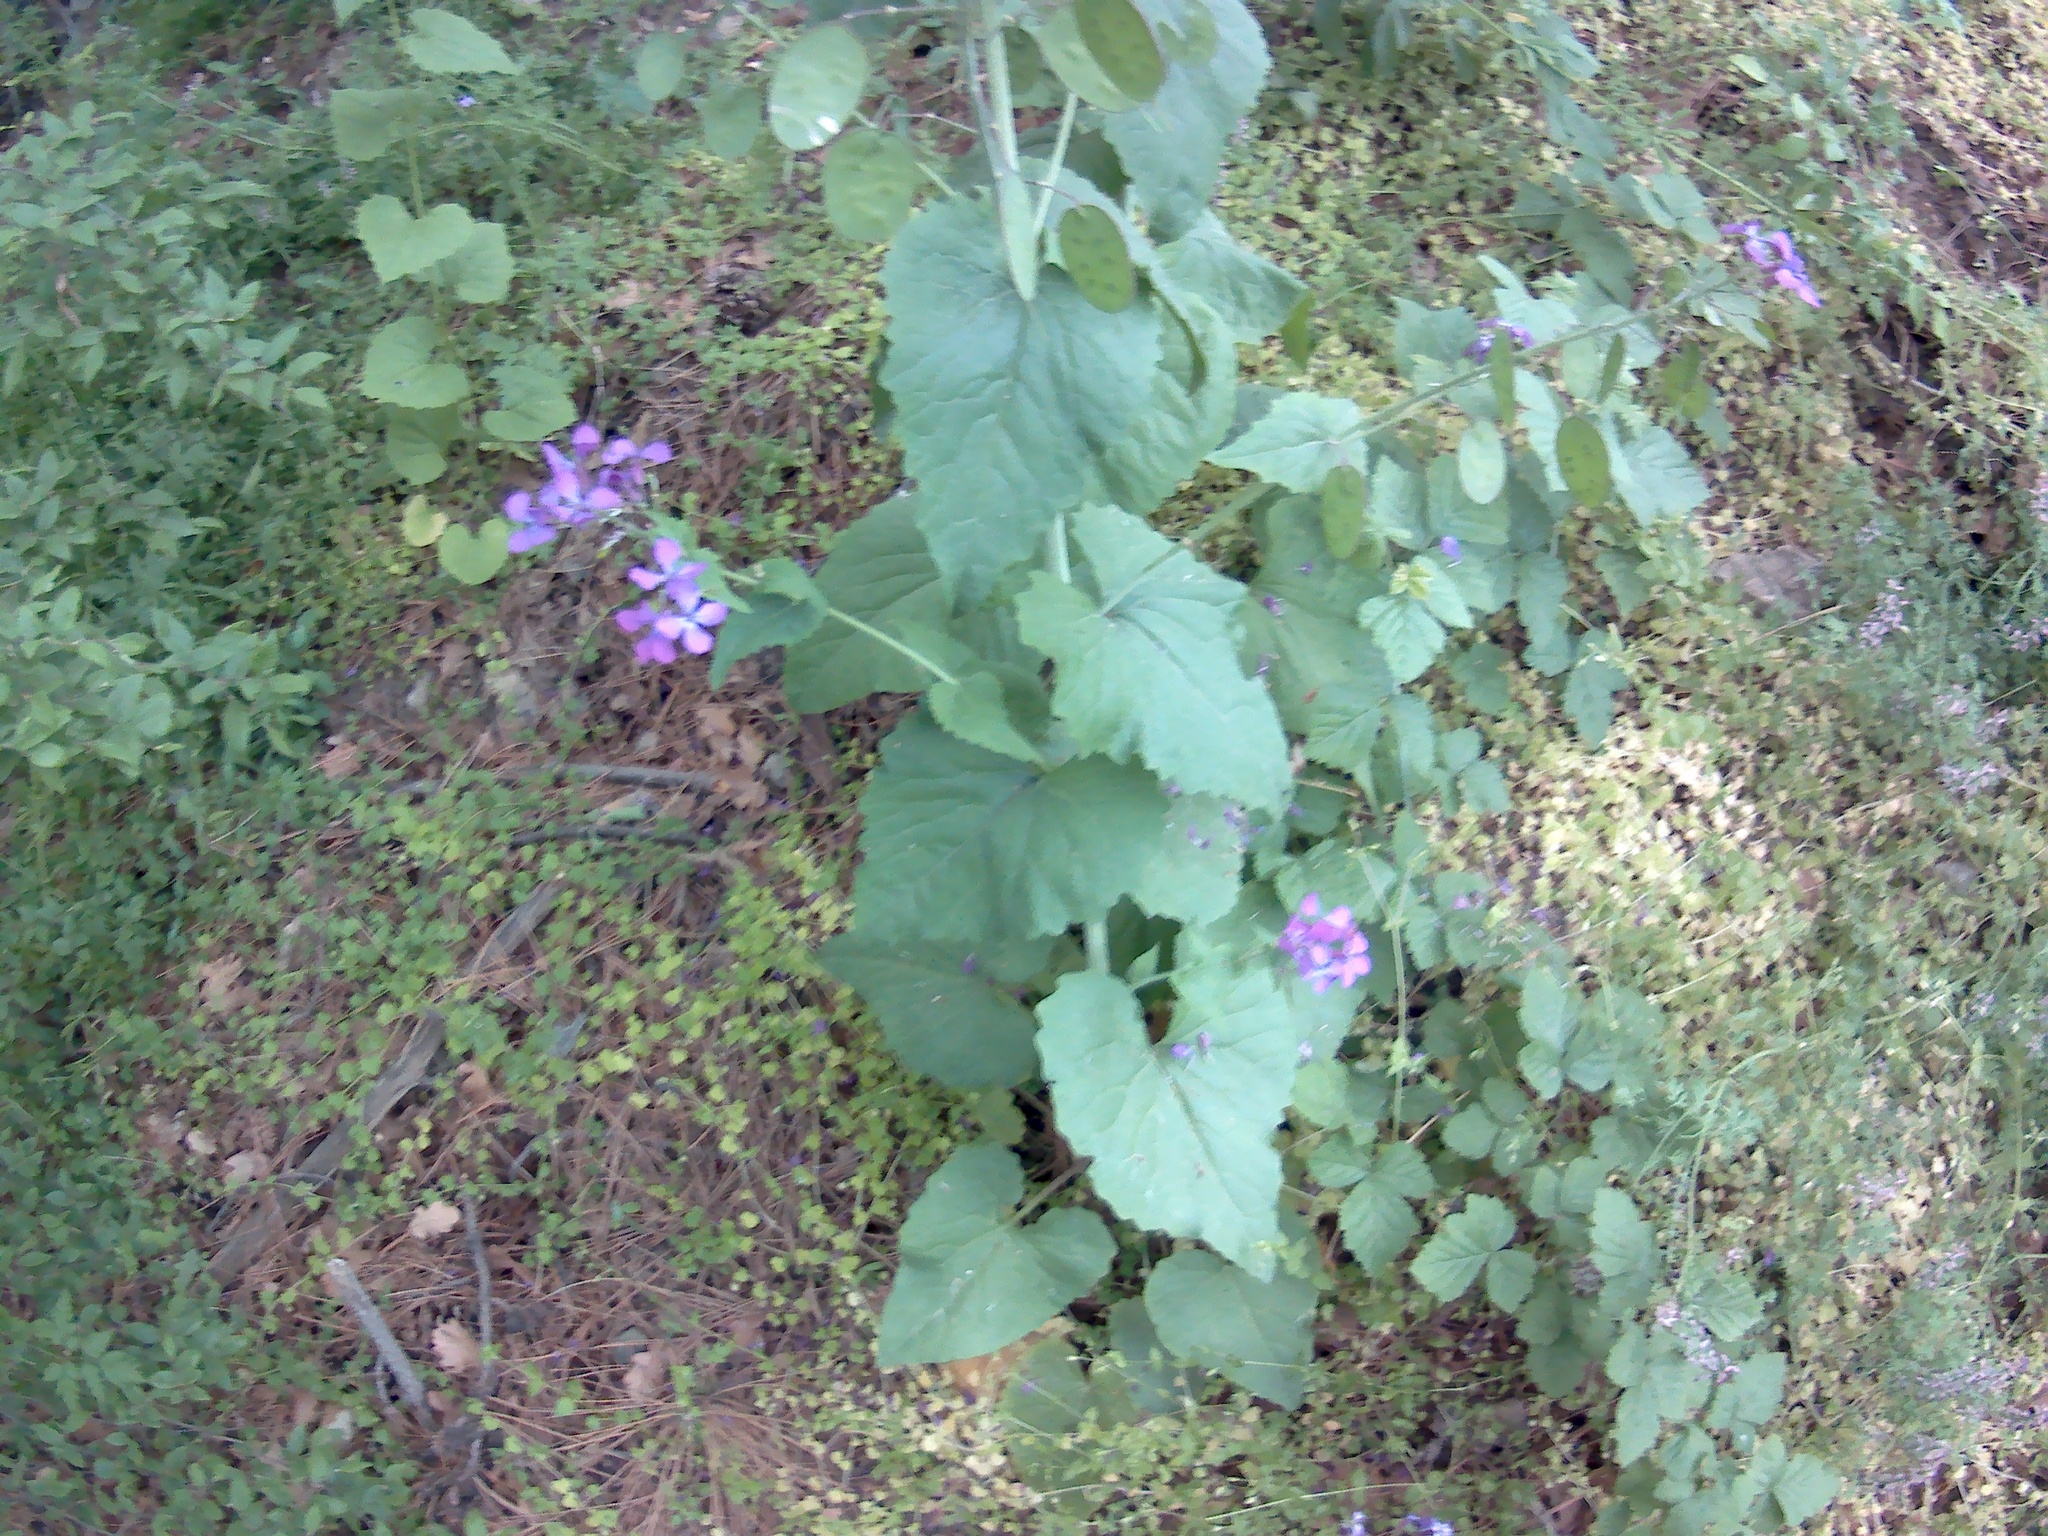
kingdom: Plantae
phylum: Tracheophyta
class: Magnoliopsida
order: Brassicales
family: Brassicaceae
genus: Lunaria
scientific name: Lunaria annua
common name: Honesty
